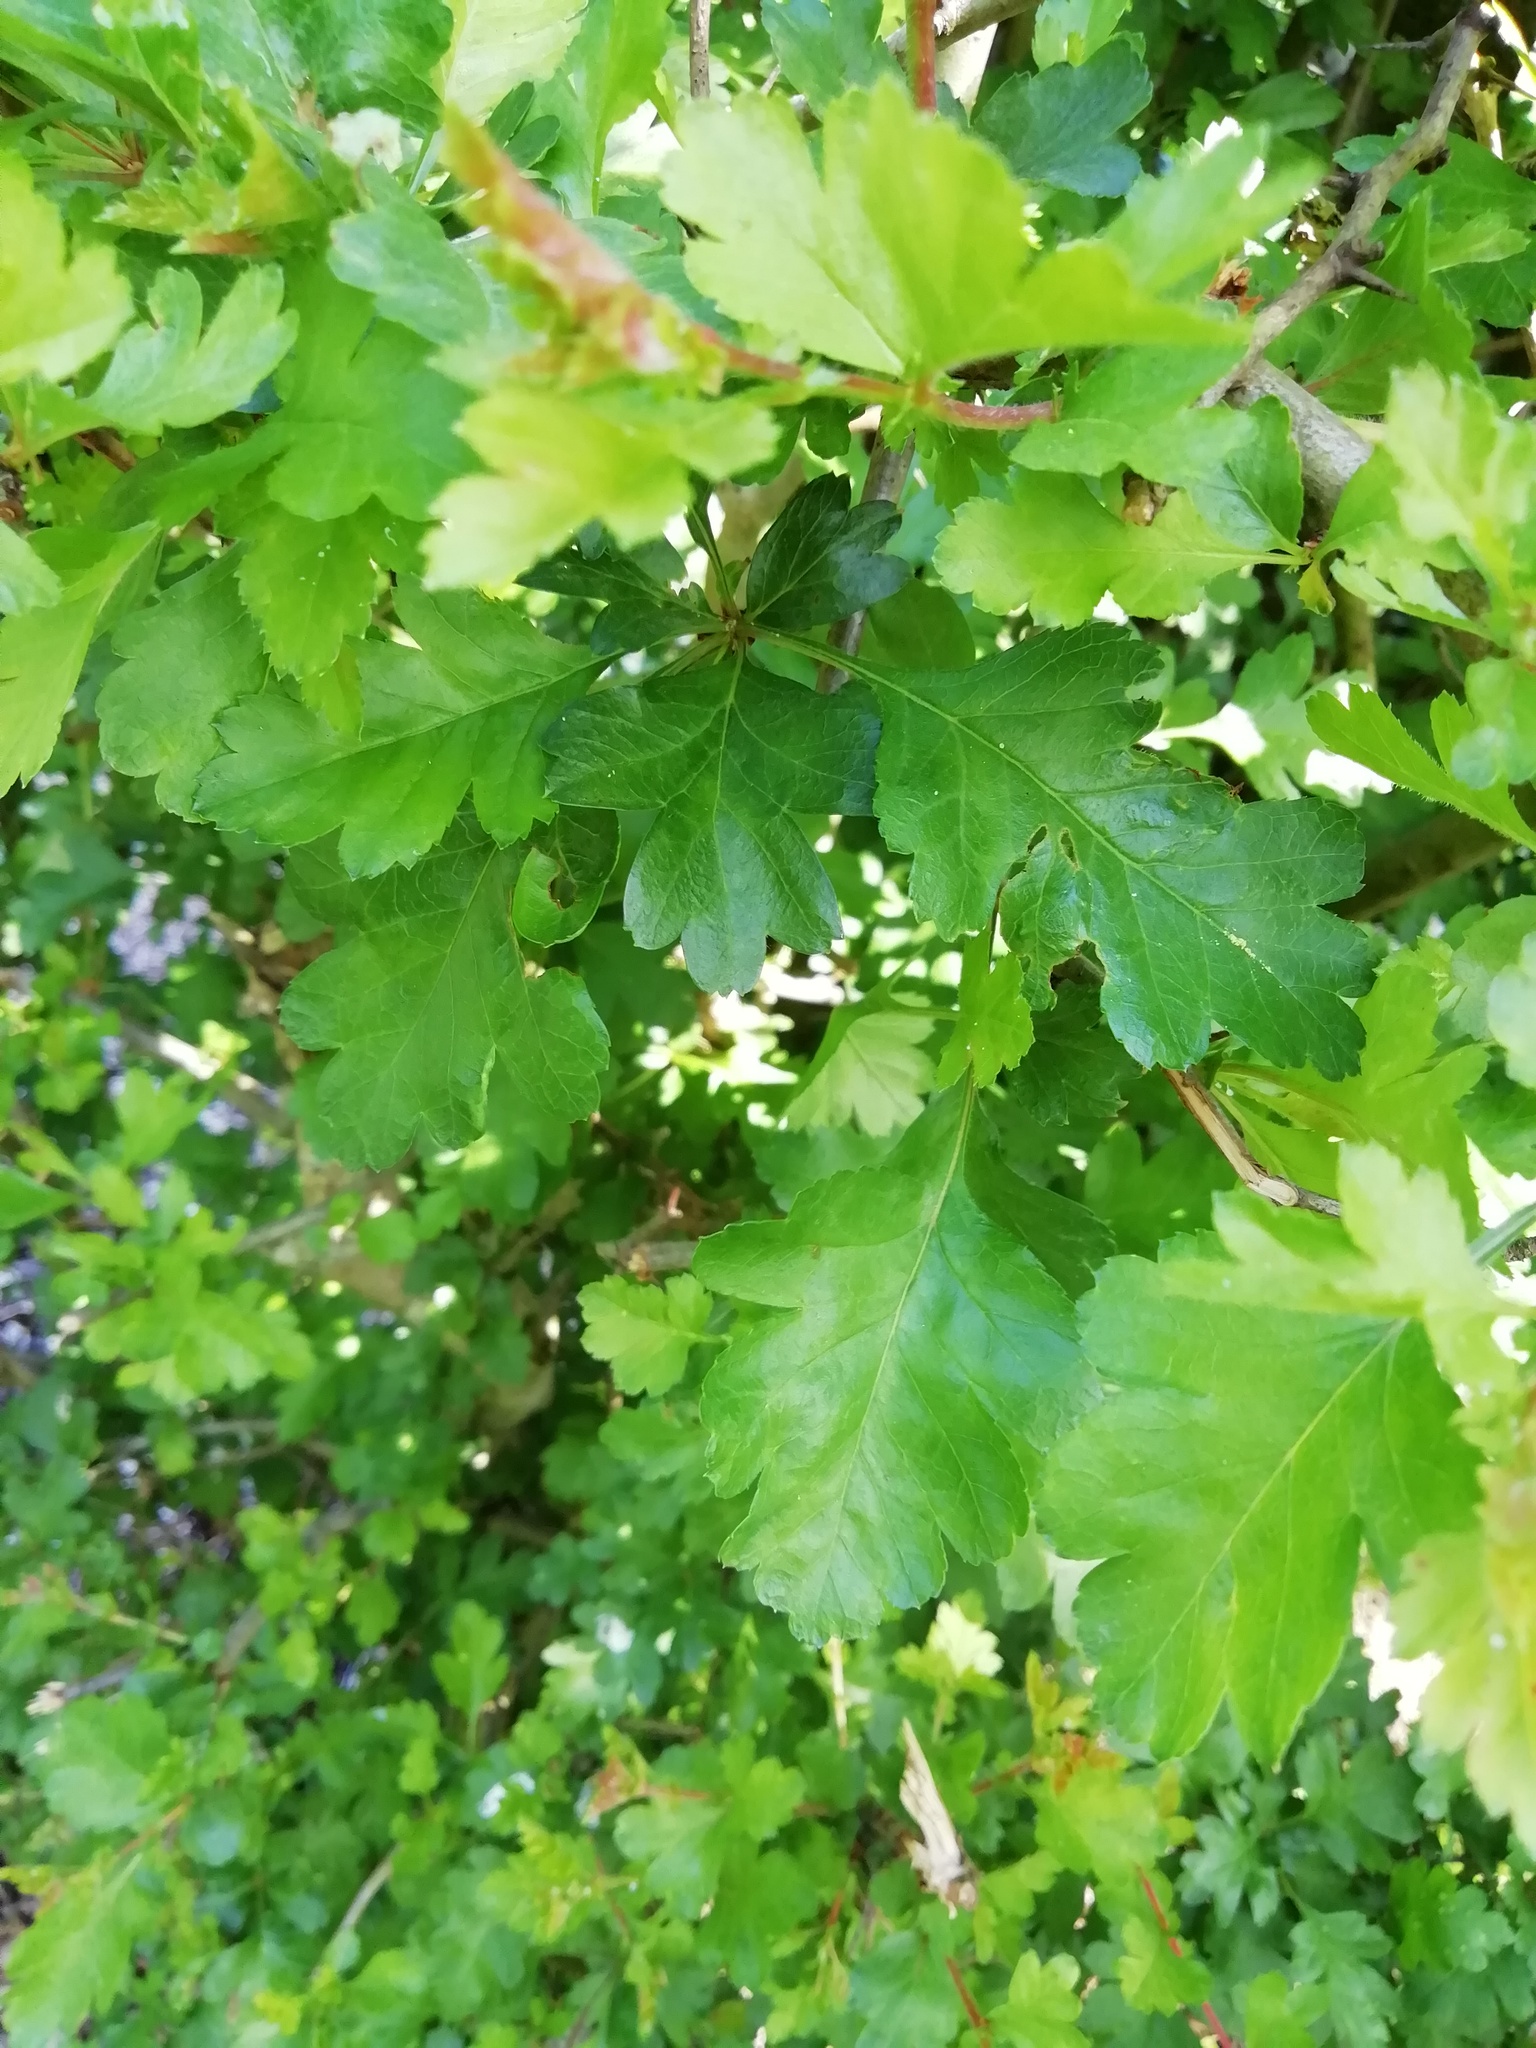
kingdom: Plantae
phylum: Tracheophyta
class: Magnoliopsida
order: Rosales
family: Rosaceae
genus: Crataegus
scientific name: Crataegus monogyna
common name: Hawthorn
